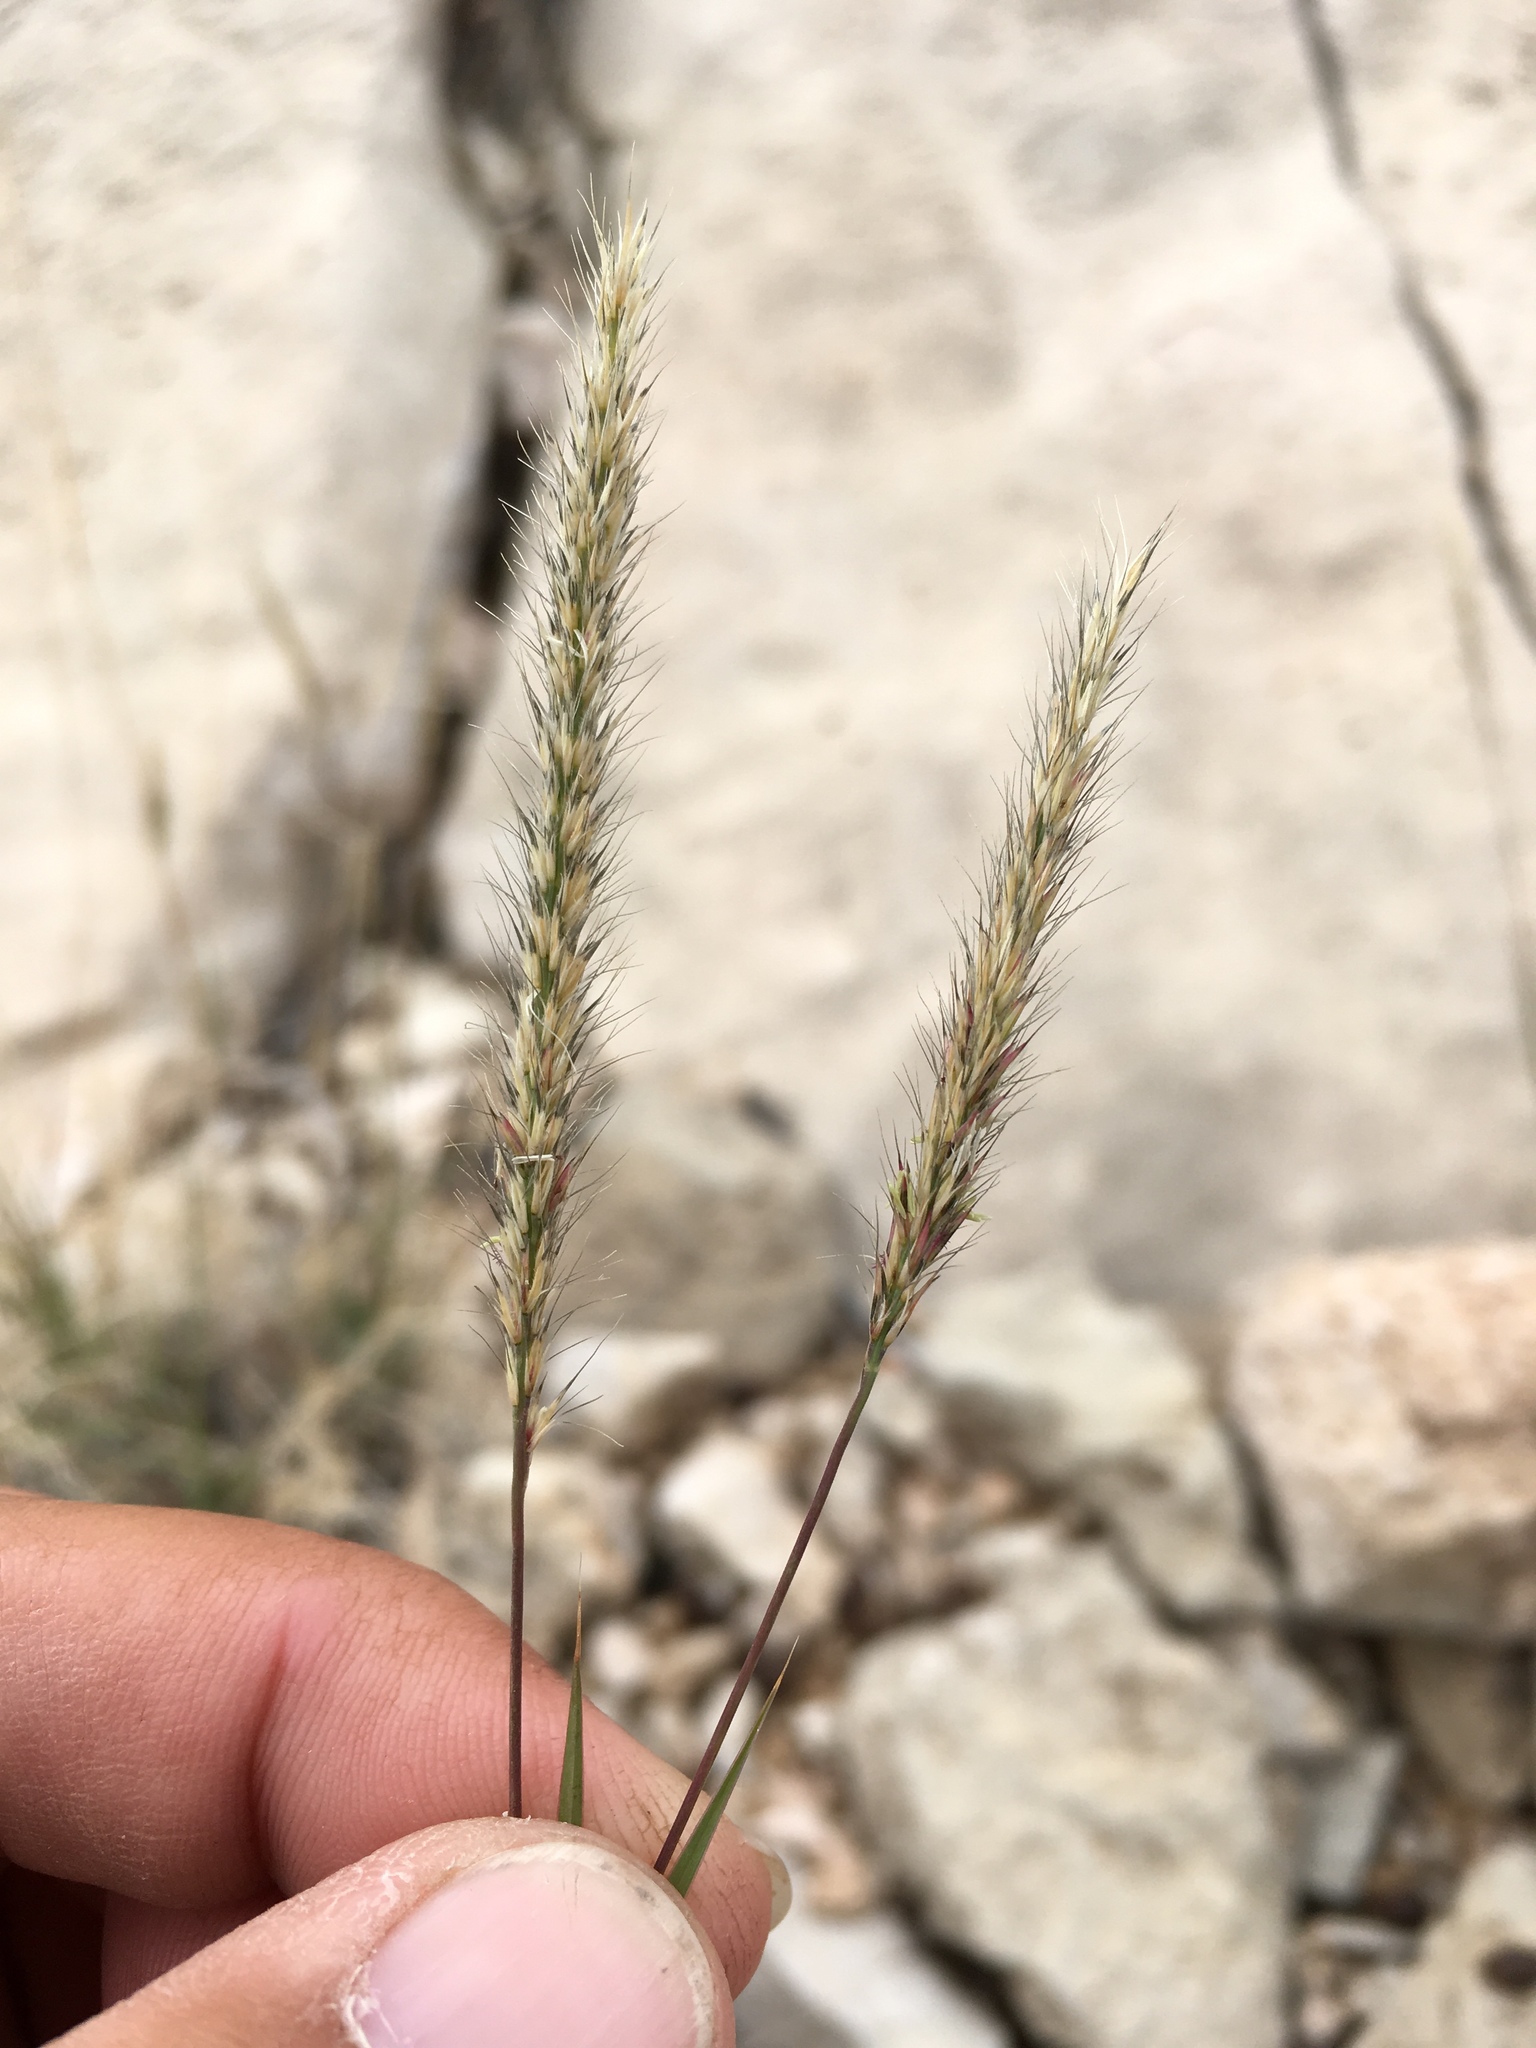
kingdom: Plantae
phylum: Tracheophyta
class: Liliopsida
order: Poales
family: Poaceae
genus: Muhlenbergia
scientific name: Muhlenbergia phleoides
